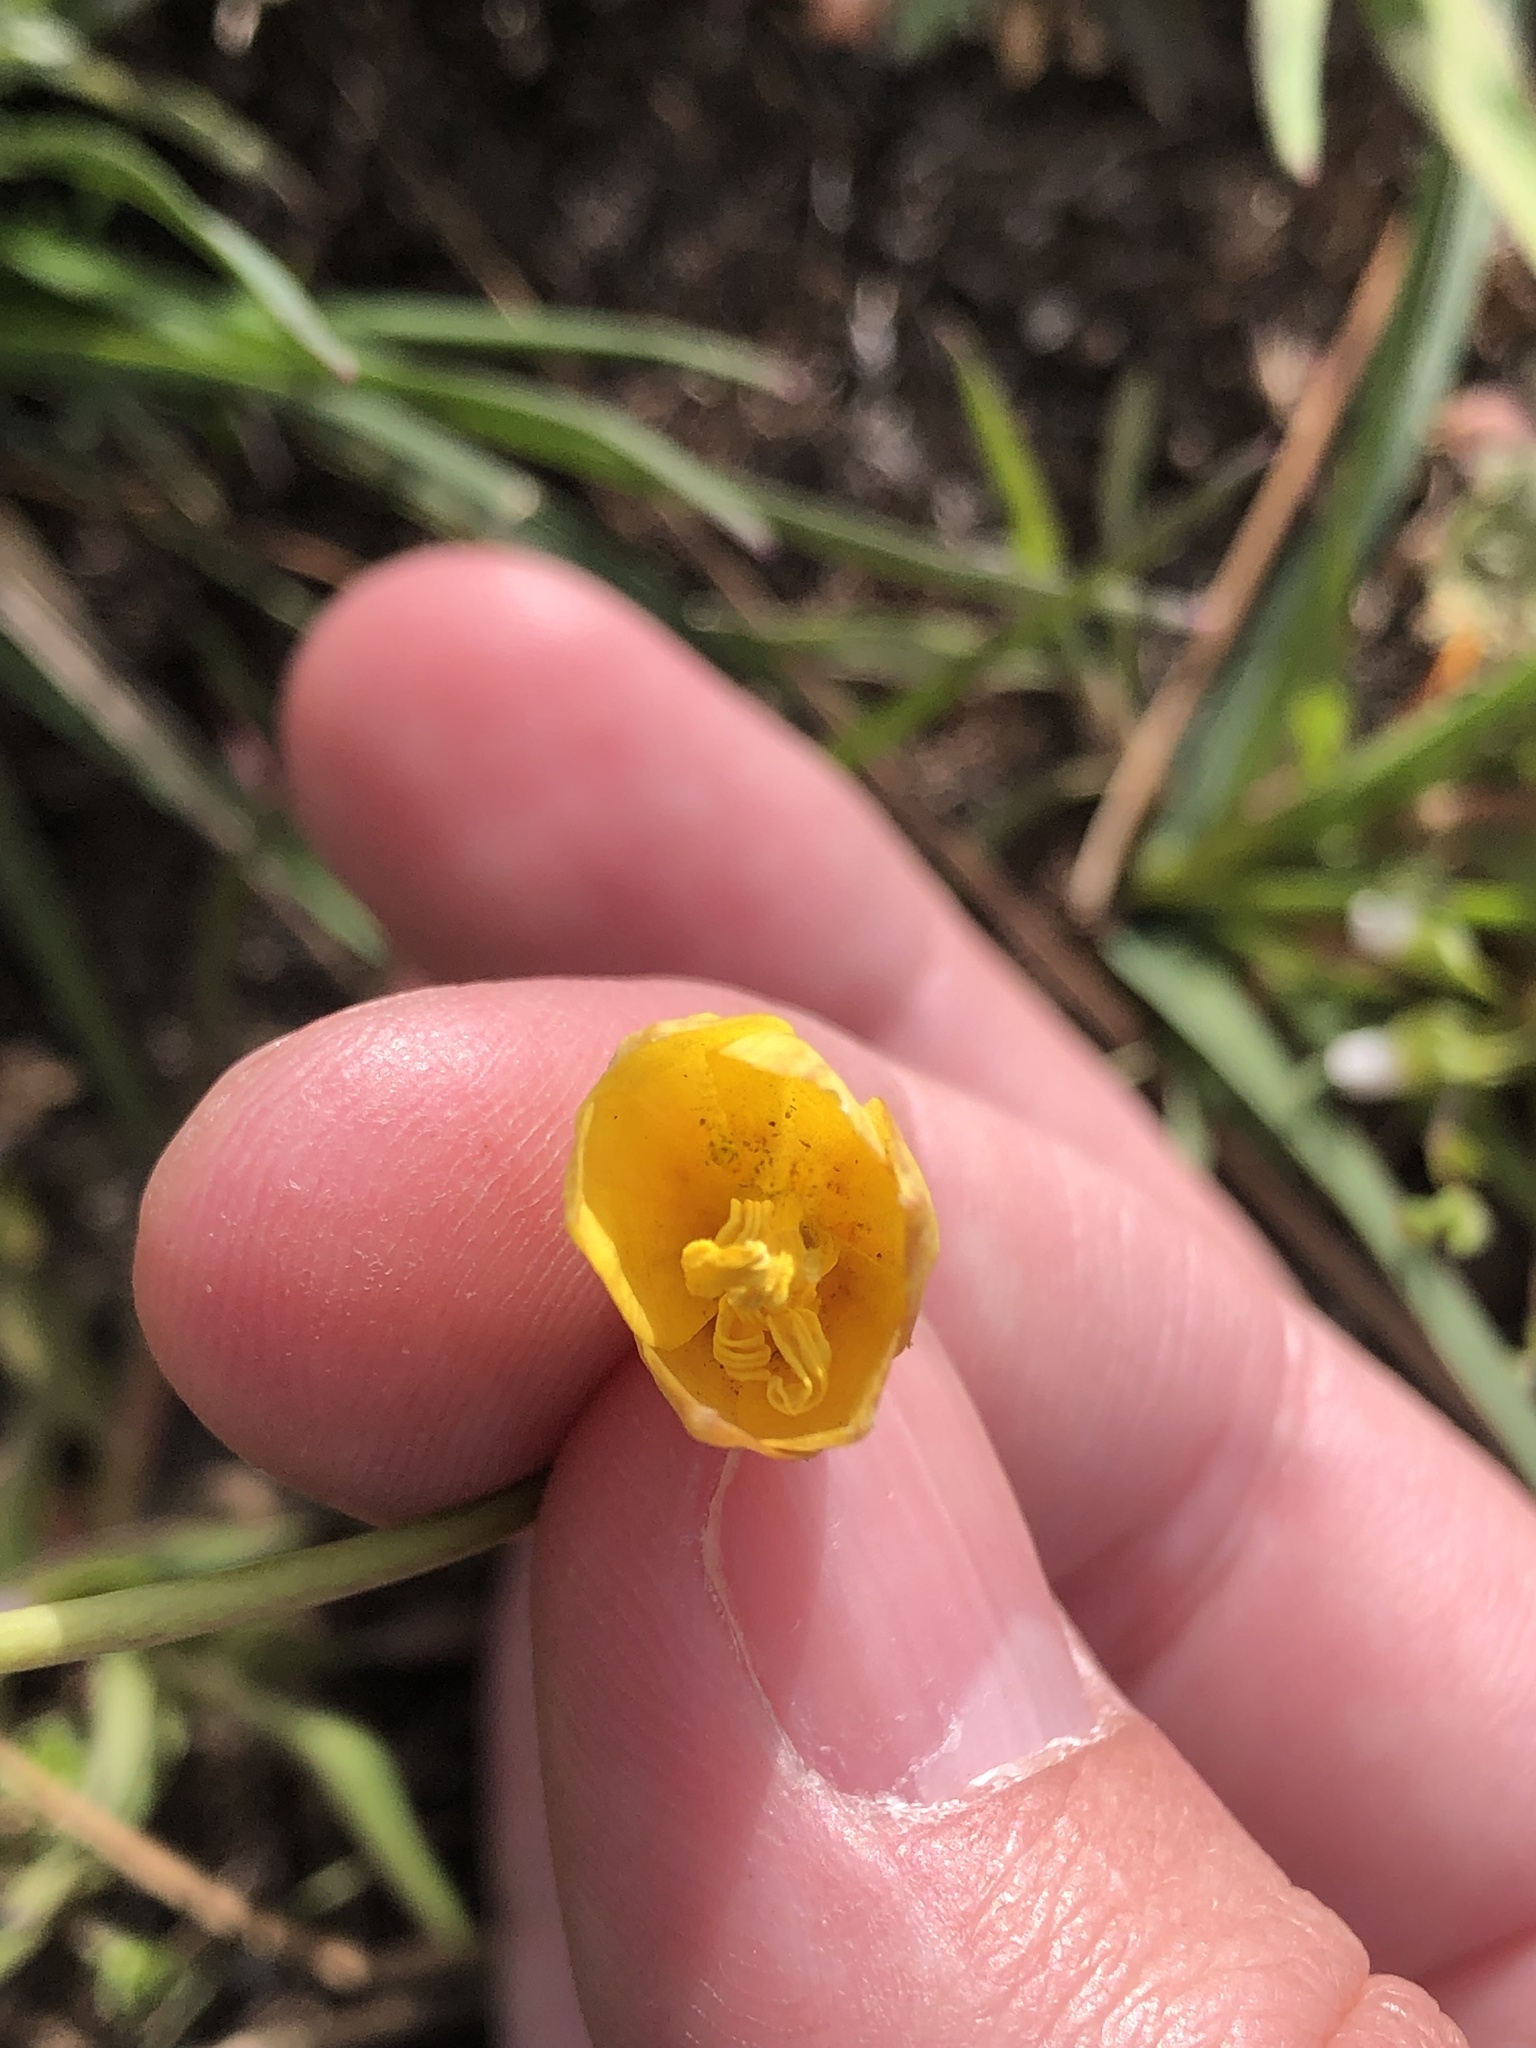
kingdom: Plantae
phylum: Tracheophyta
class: Liliopsida
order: Liliales
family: Liliaceae
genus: Fritillaria
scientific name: Fritillaria pudica
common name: Yellow fritillary
